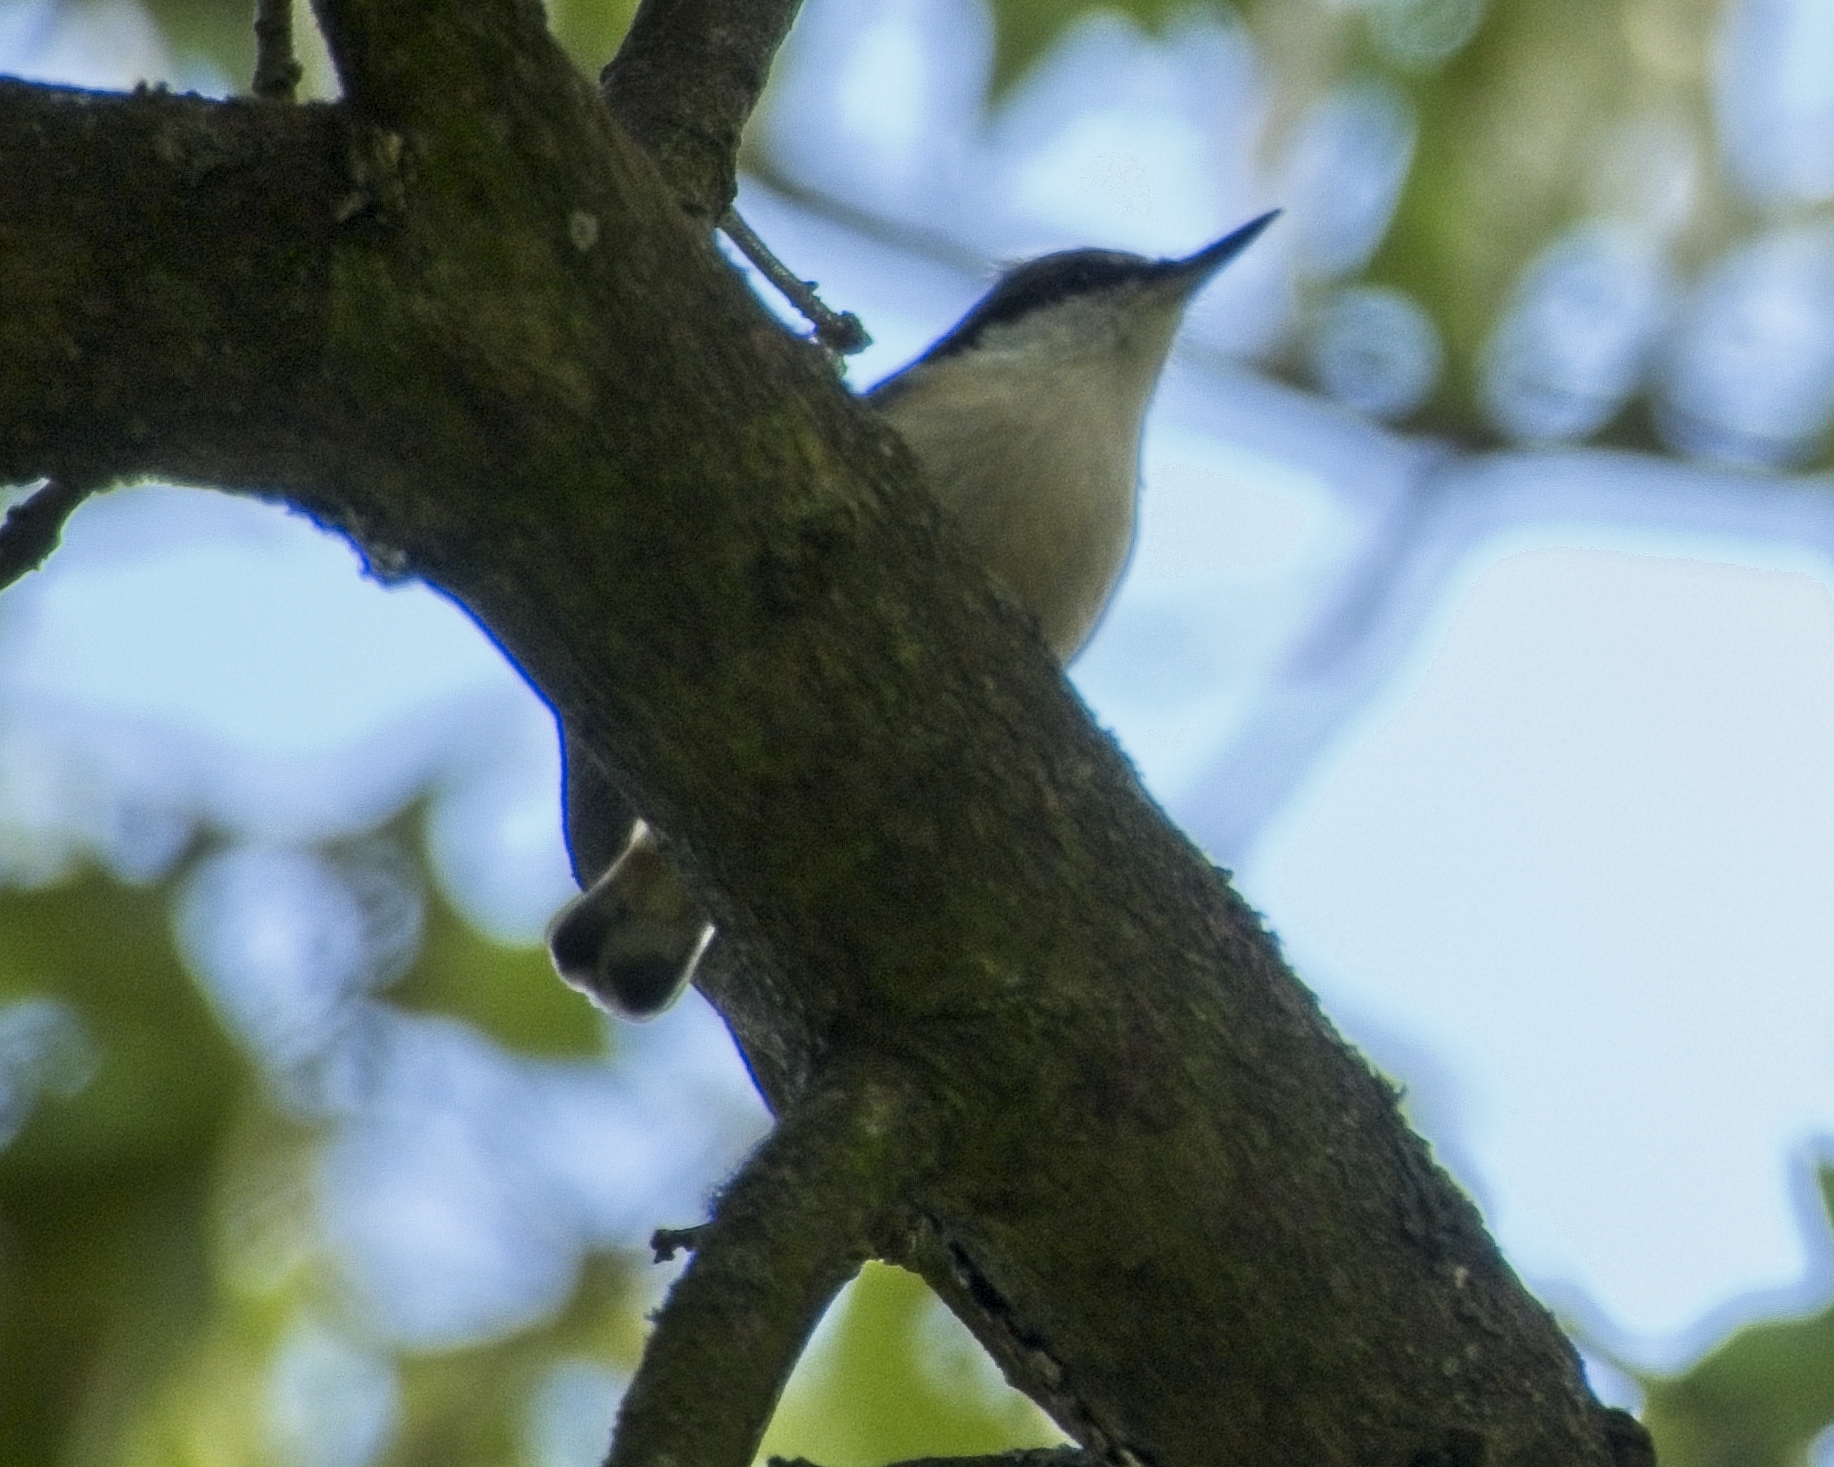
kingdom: Animalia
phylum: Chordata
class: Aves
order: Passeriformes
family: Sittidae
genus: Sitta
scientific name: Sitta europaea
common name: Eurasian nuthatch
